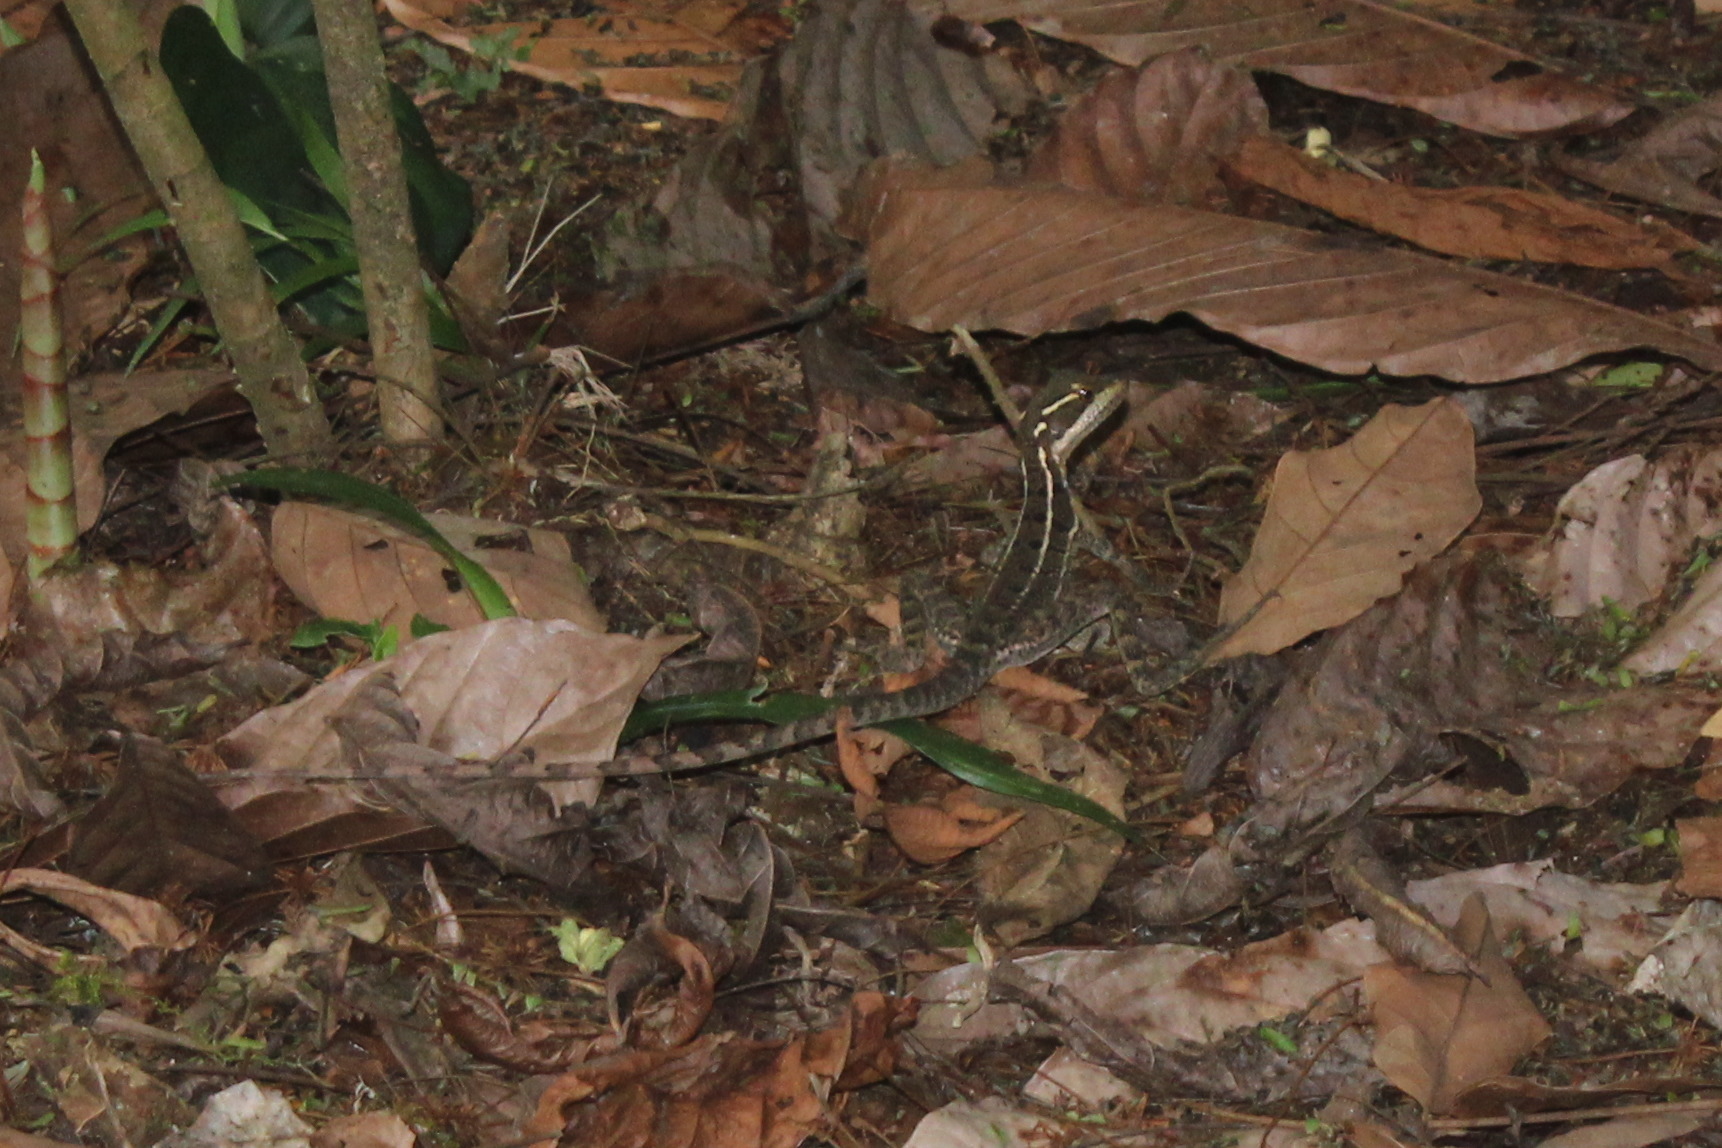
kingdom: Animalia
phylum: Chordata
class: Squamata
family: Corytophanidae
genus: Basiliscus
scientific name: Basiliscus basiliscus
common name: Common basilisk
